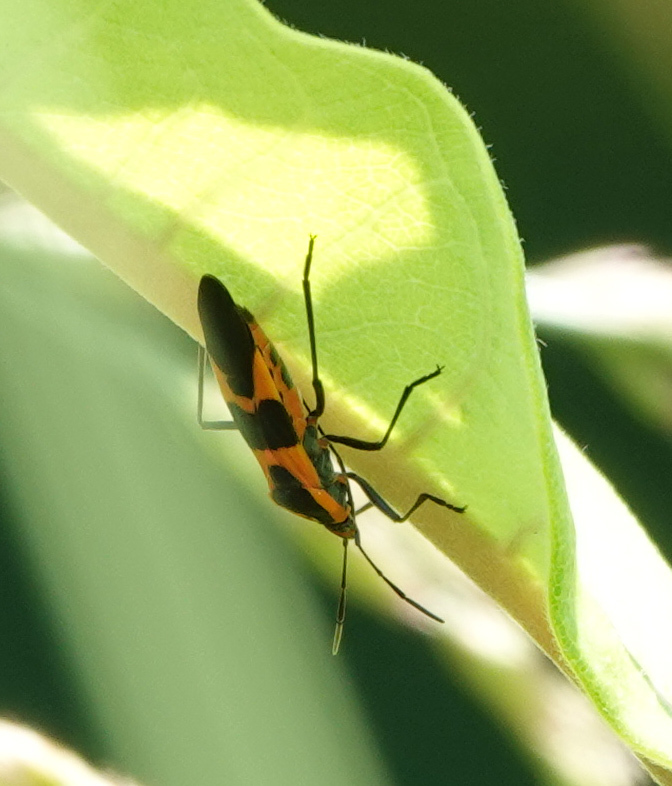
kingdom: Animalia
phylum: Arthropoda
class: Insecta
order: Hemiptera
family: Lygaeidae
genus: Oncopeltus
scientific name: Oncopeltus fasciatus
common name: Large milkweed bug
